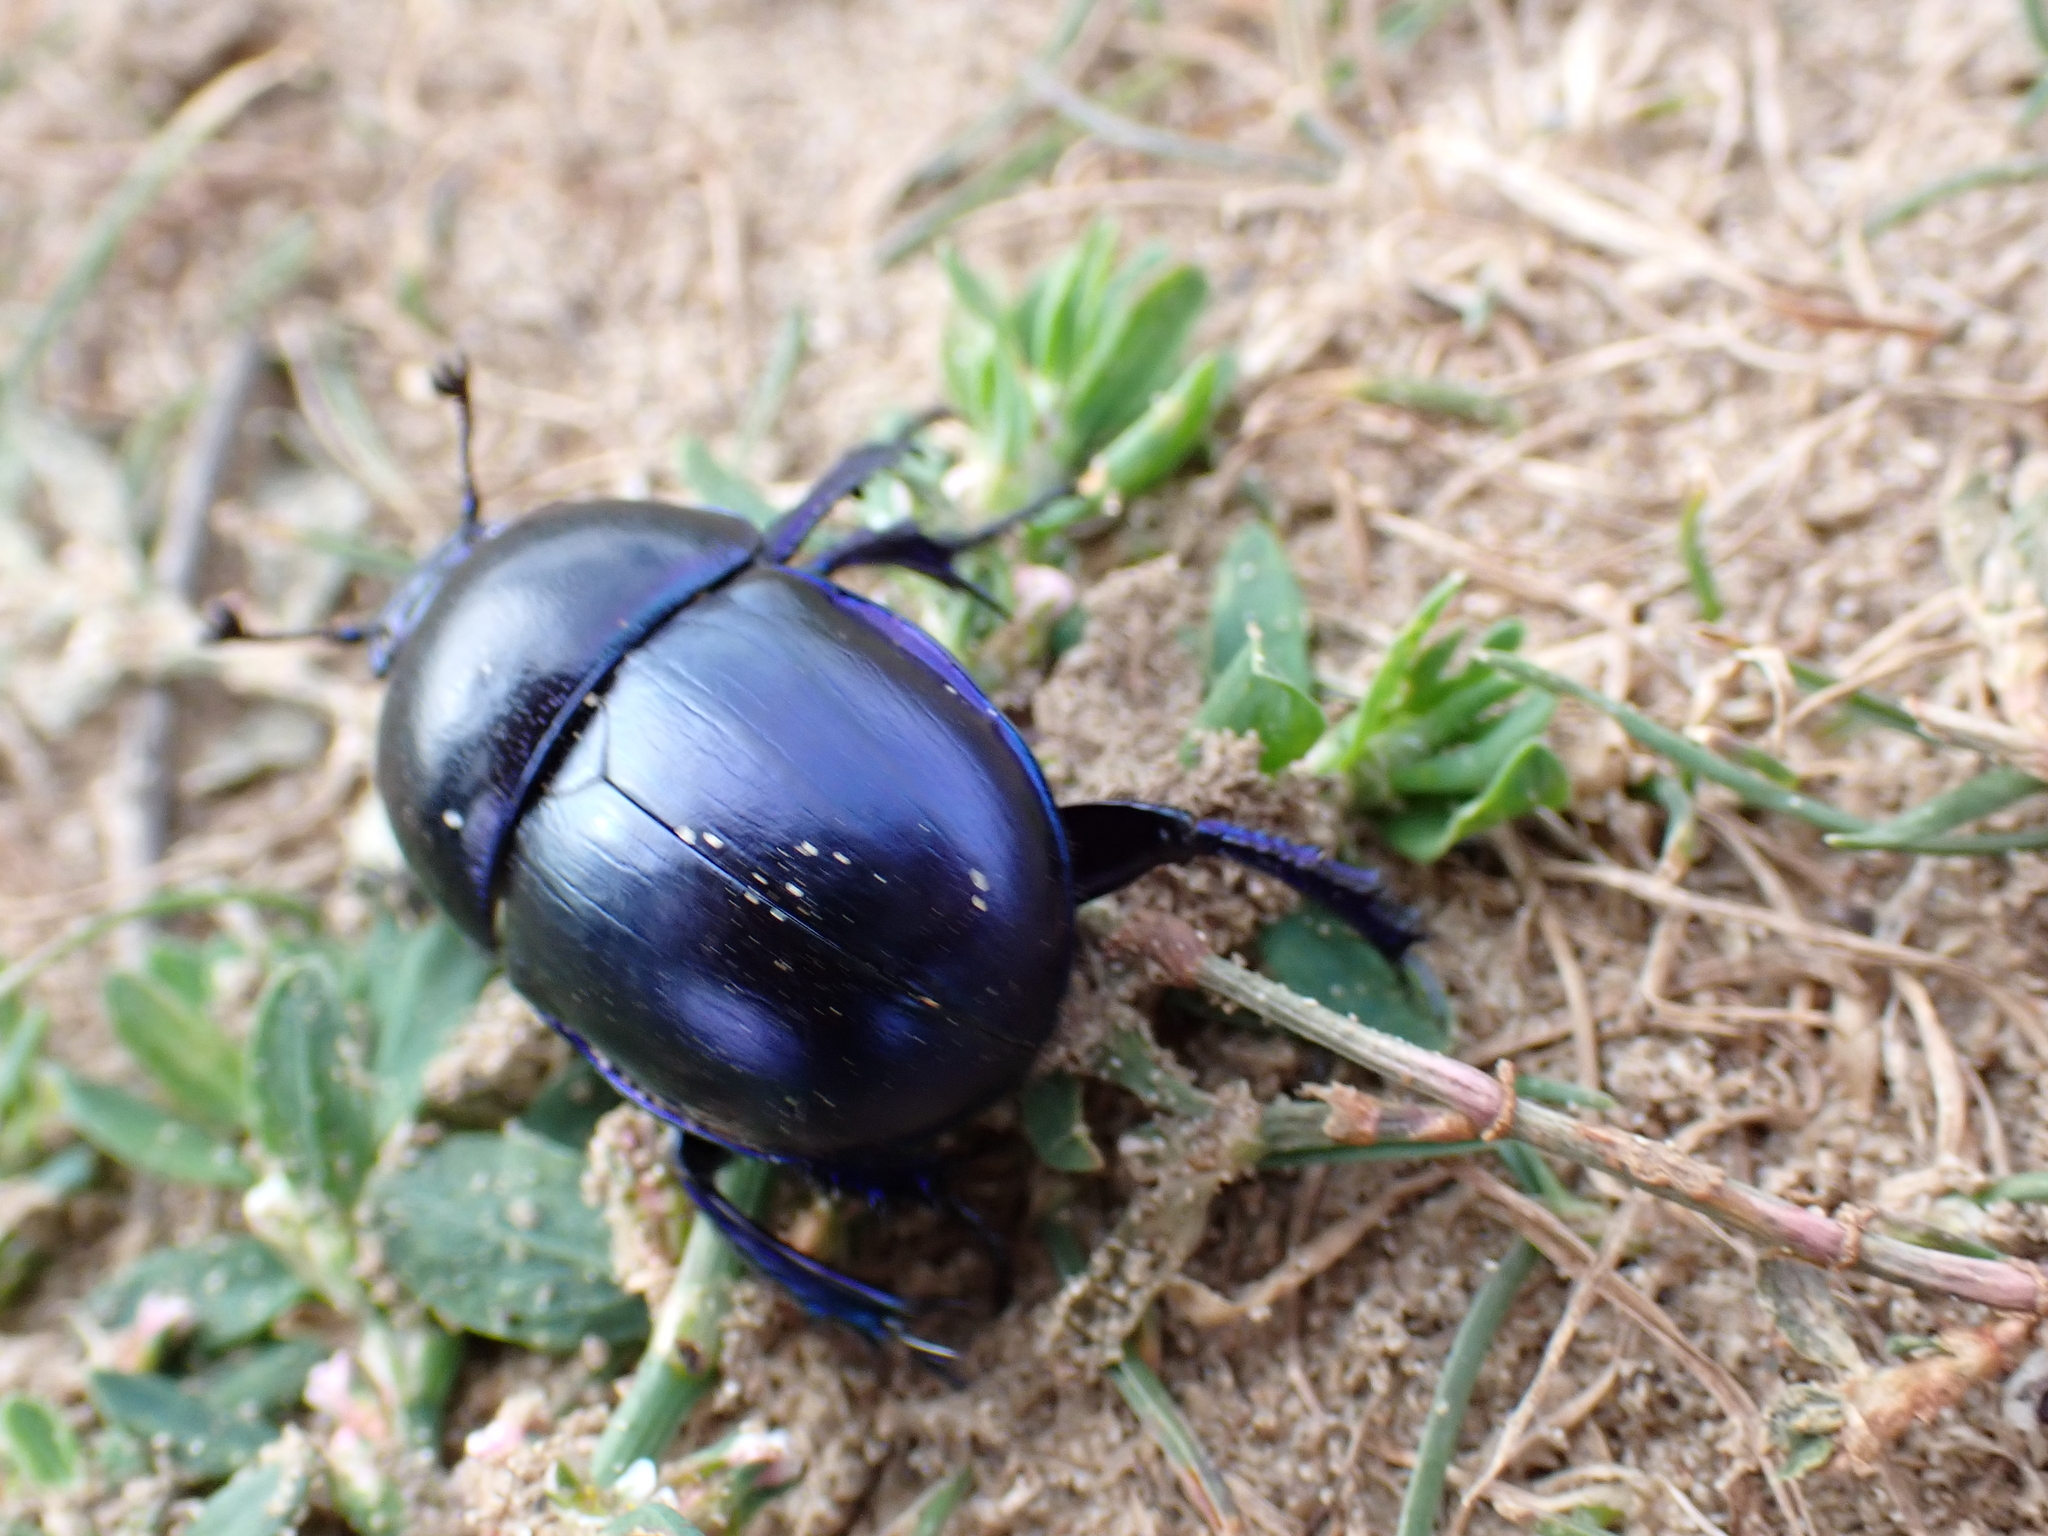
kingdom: Animalia
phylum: Arthropoda
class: Insecta
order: Coleoptera
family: Geotrupidae
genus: Trypocopris
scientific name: Trypocopris vernalis
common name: Spring dumbledor
